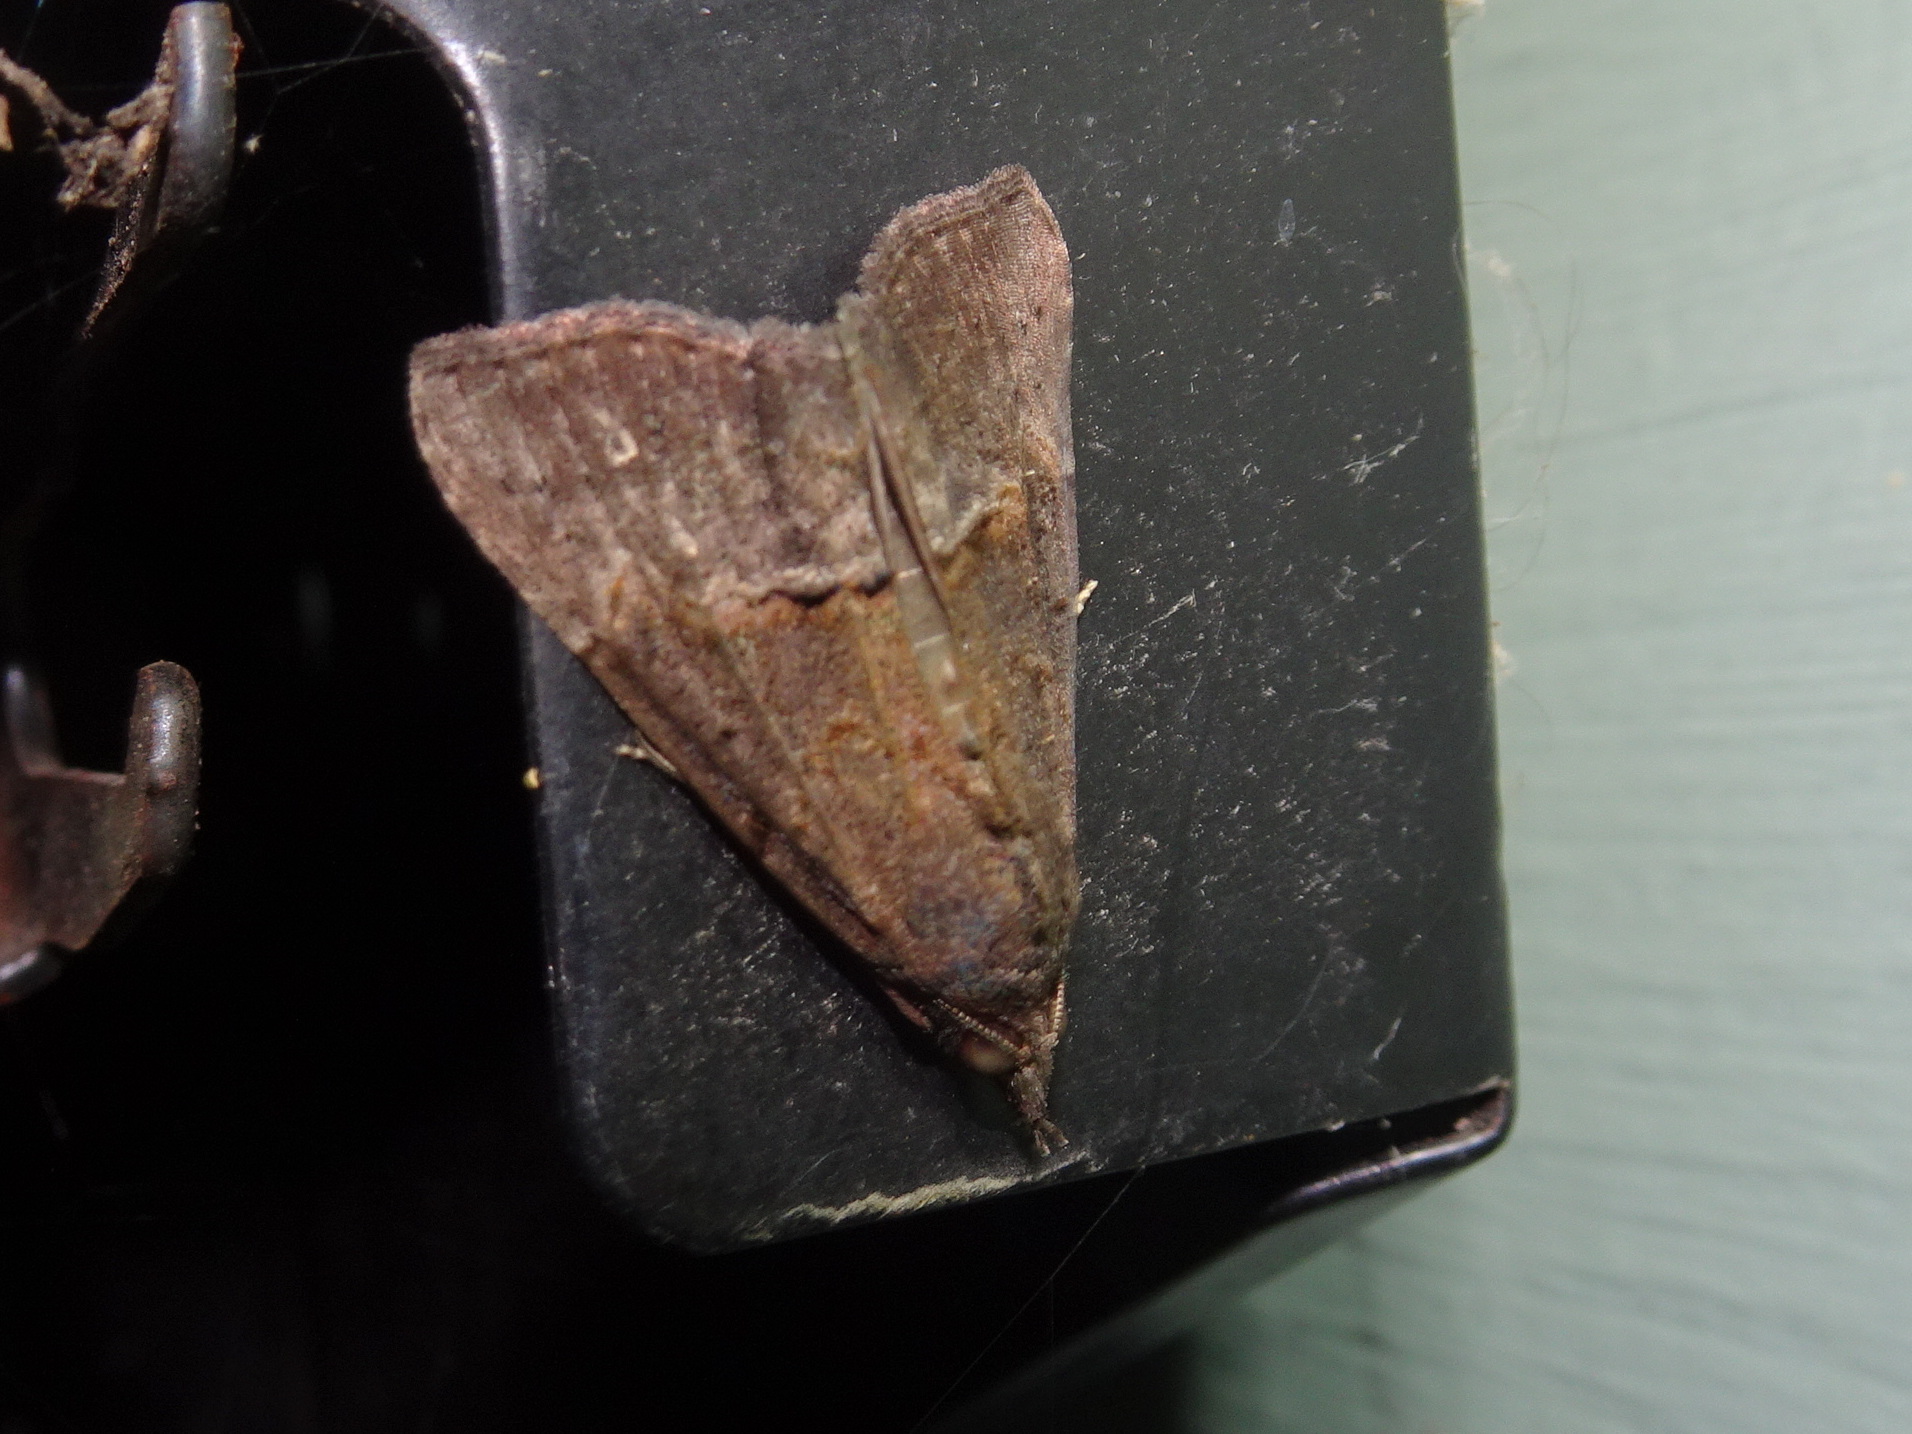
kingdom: Animalia
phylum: Arthropoda
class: Insecta
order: Lepidoptera
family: Erebidae
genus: Hypena
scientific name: Hypena scabra
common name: Green cloverworm
